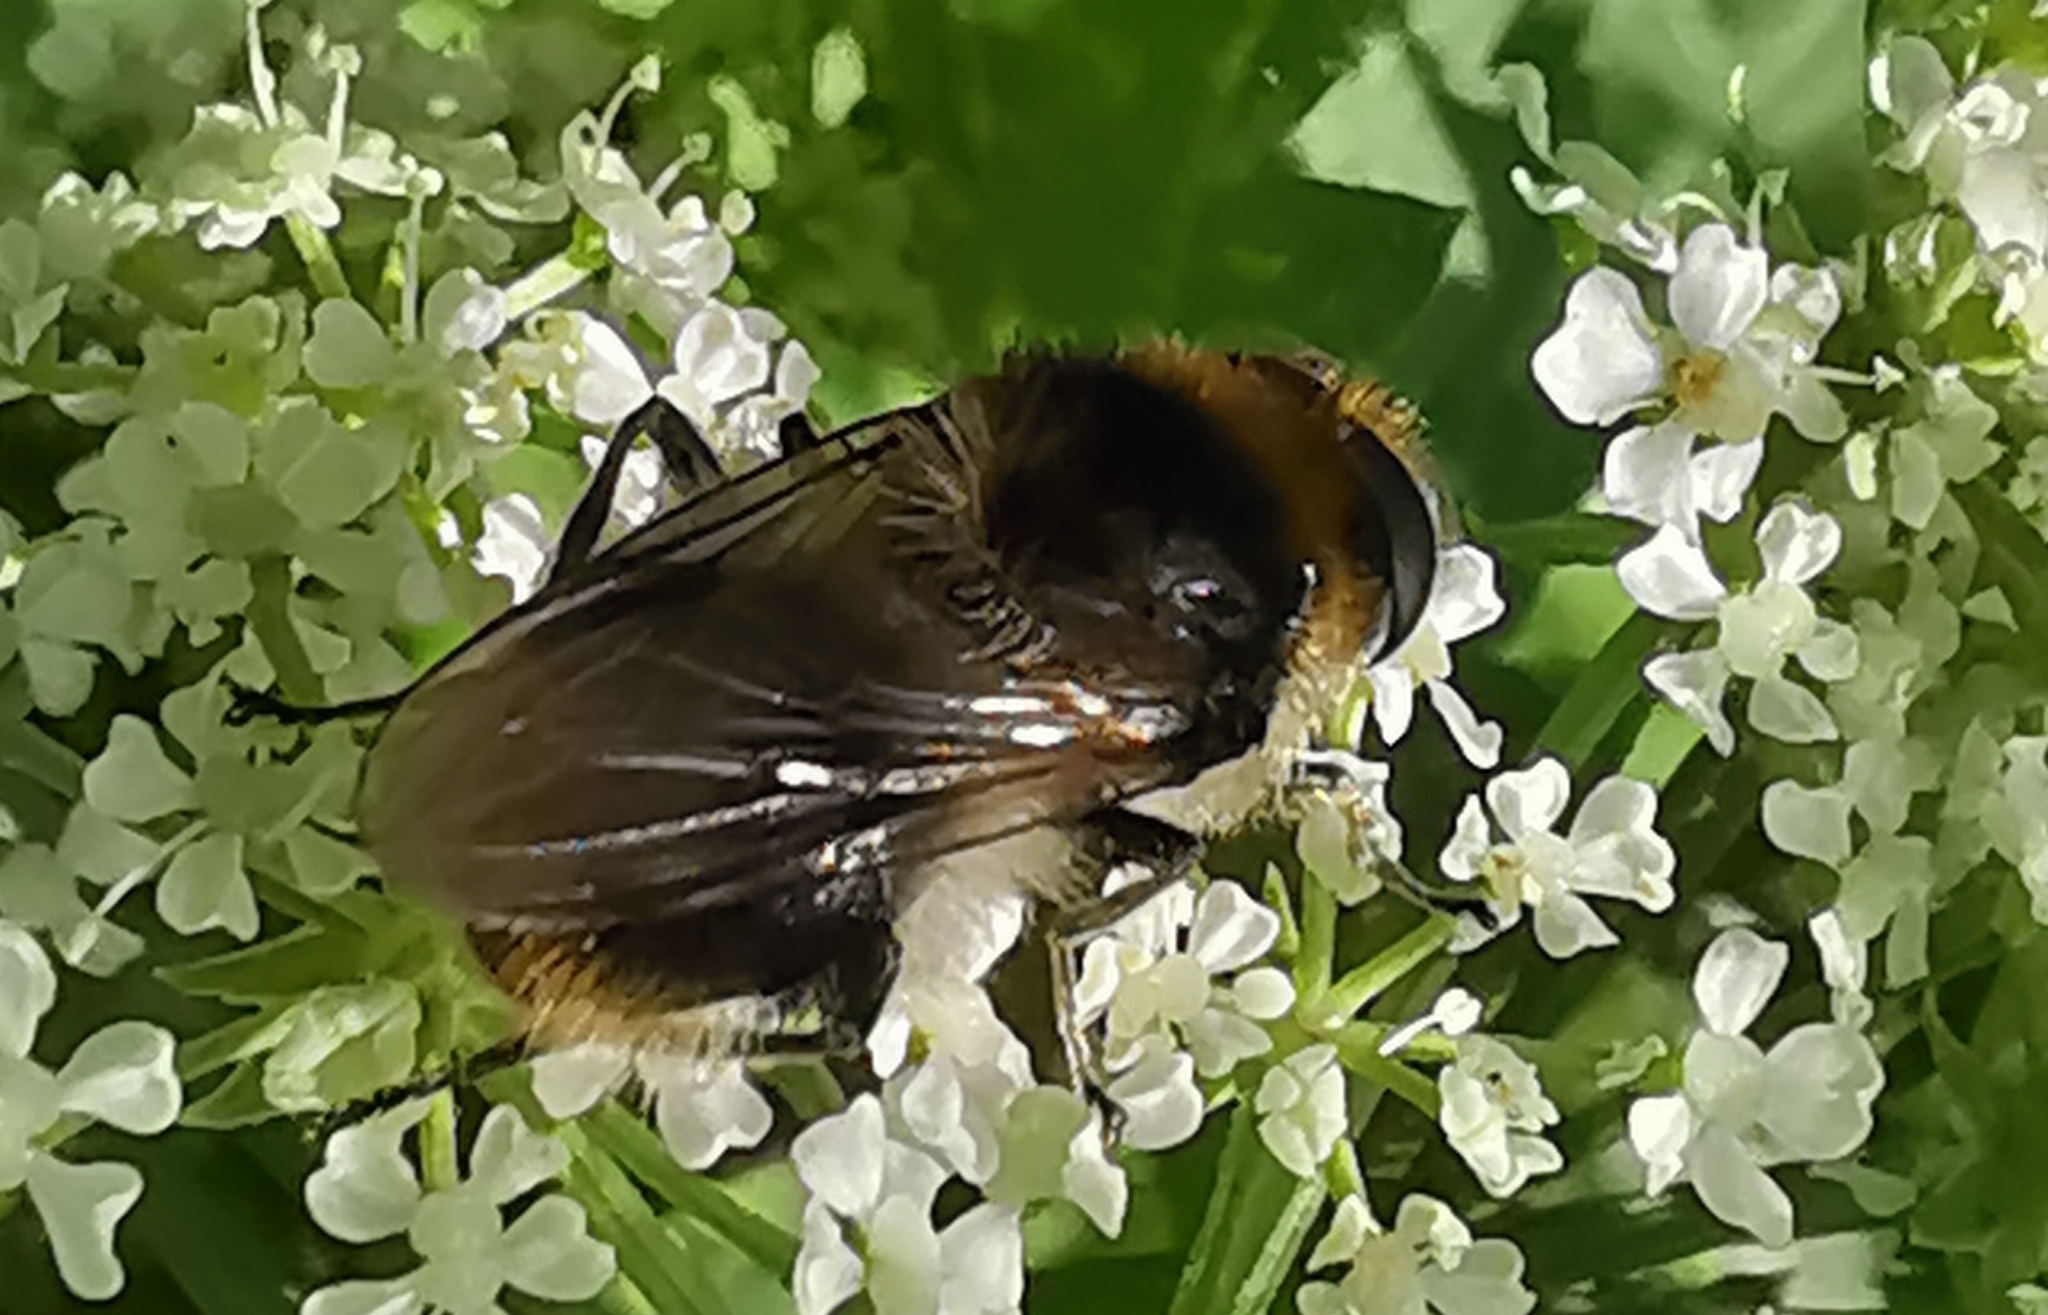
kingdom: Animalia
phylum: Arthropoda
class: Insecta
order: Diptera
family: Syrphidae
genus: Cheilosia
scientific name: Cheilosia illustrata
